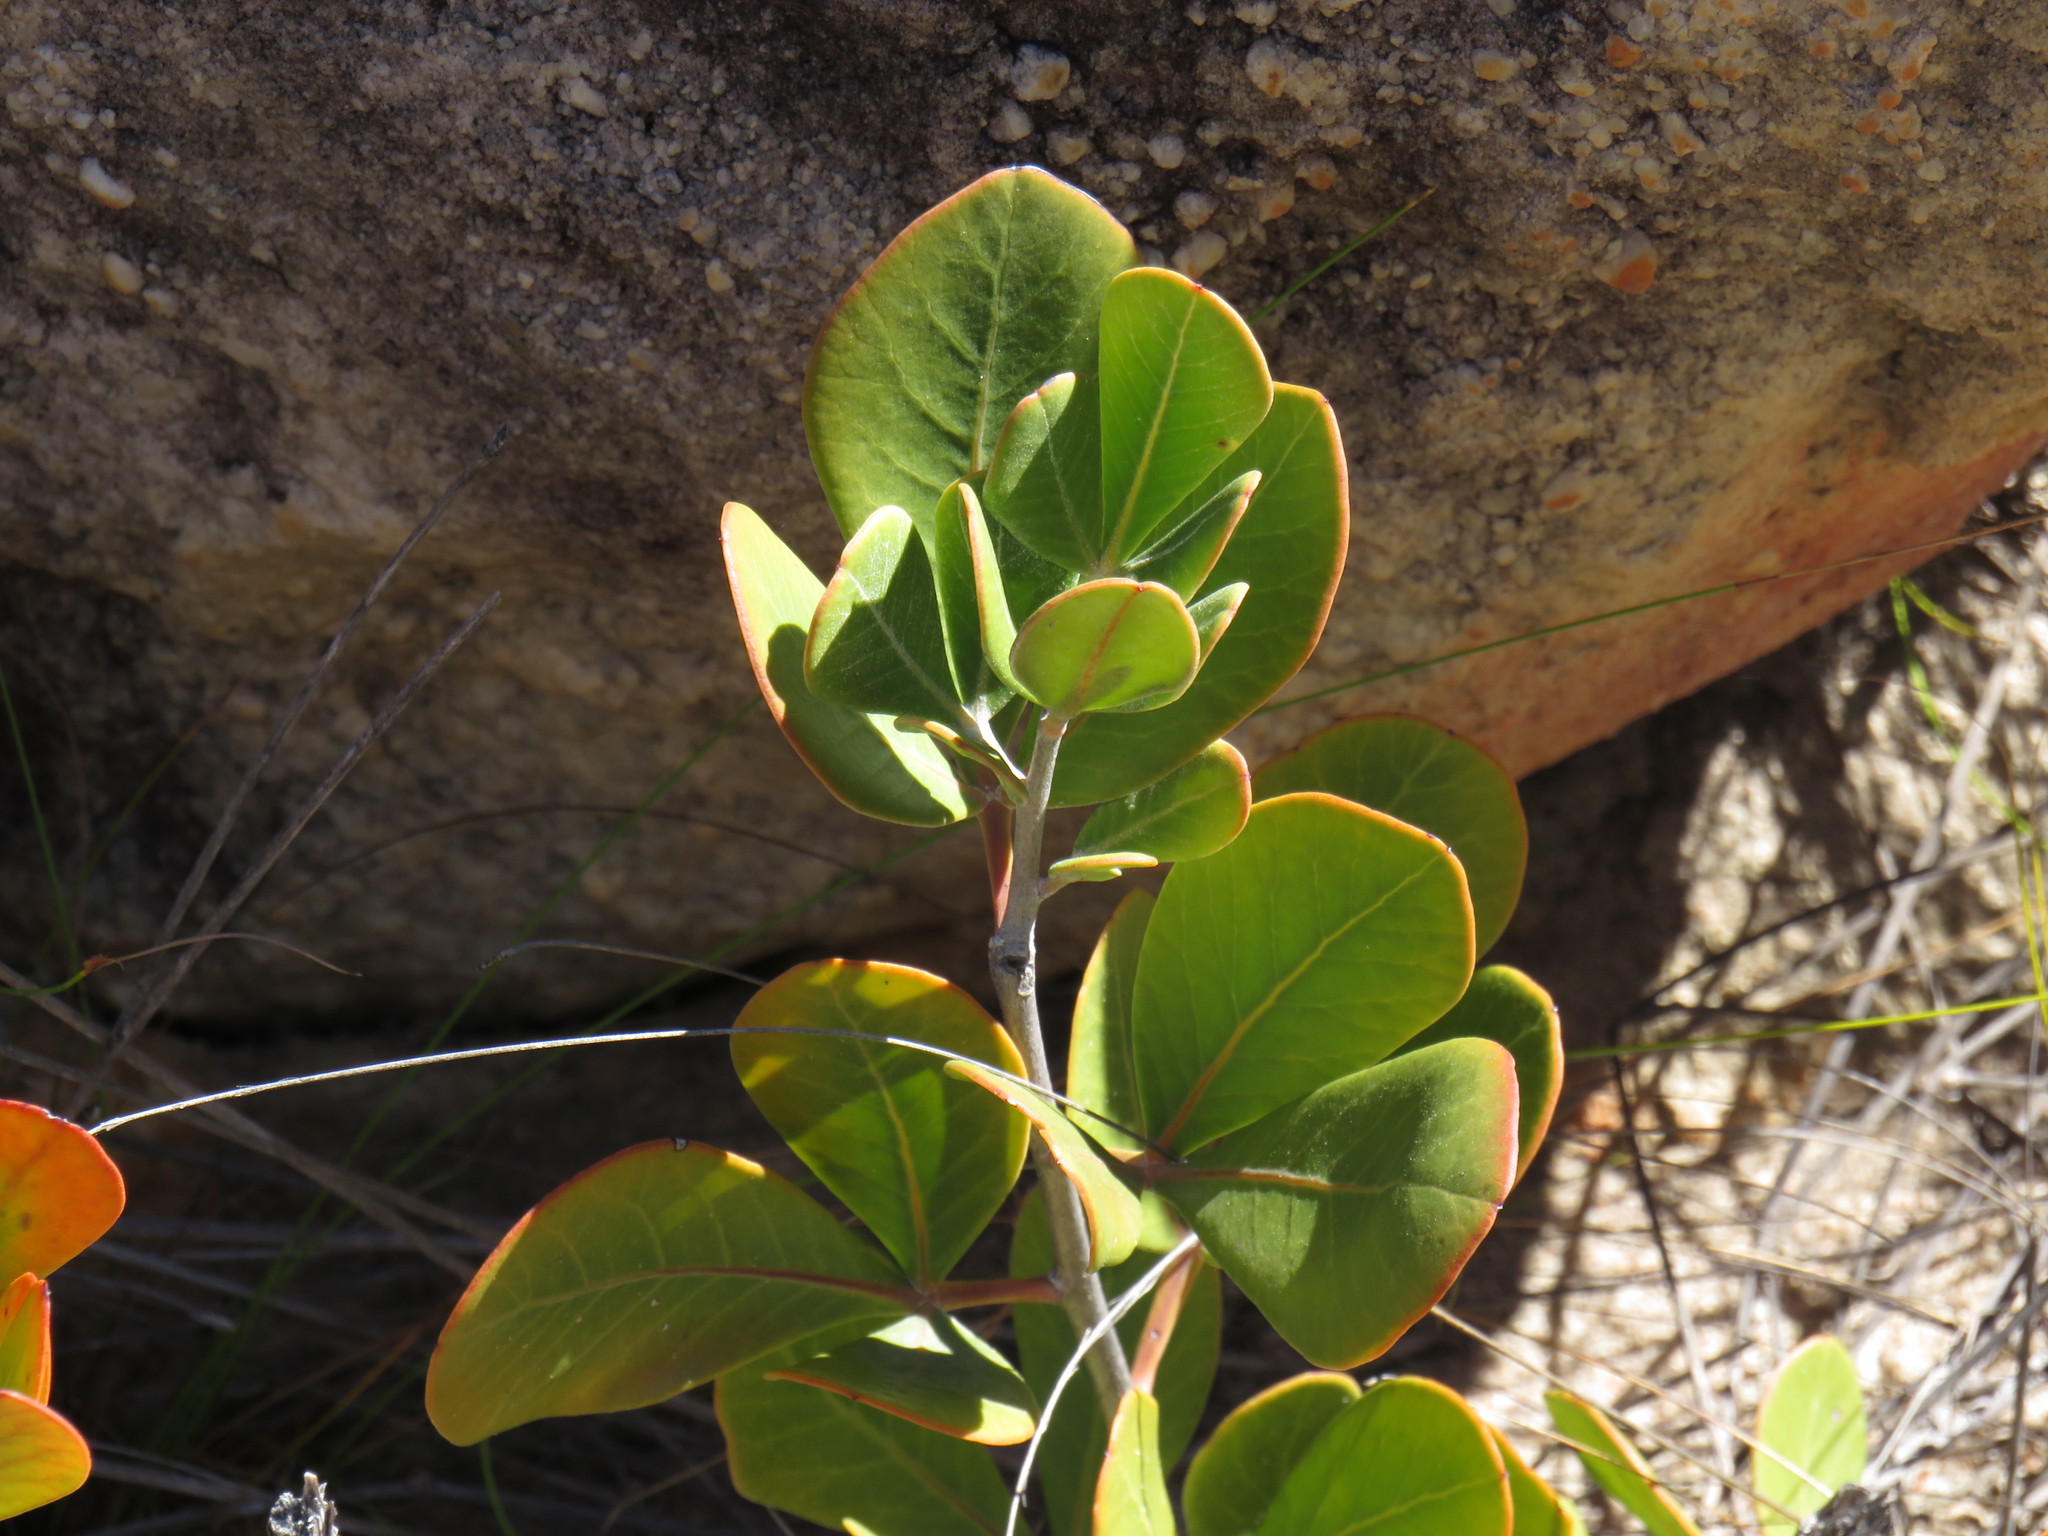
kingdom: Plantae
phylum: Tracheophyta
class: Magnoliopsida
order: Sapindales
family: Anacardiaceae
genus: Searsia
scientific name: Searsia scytophylla
